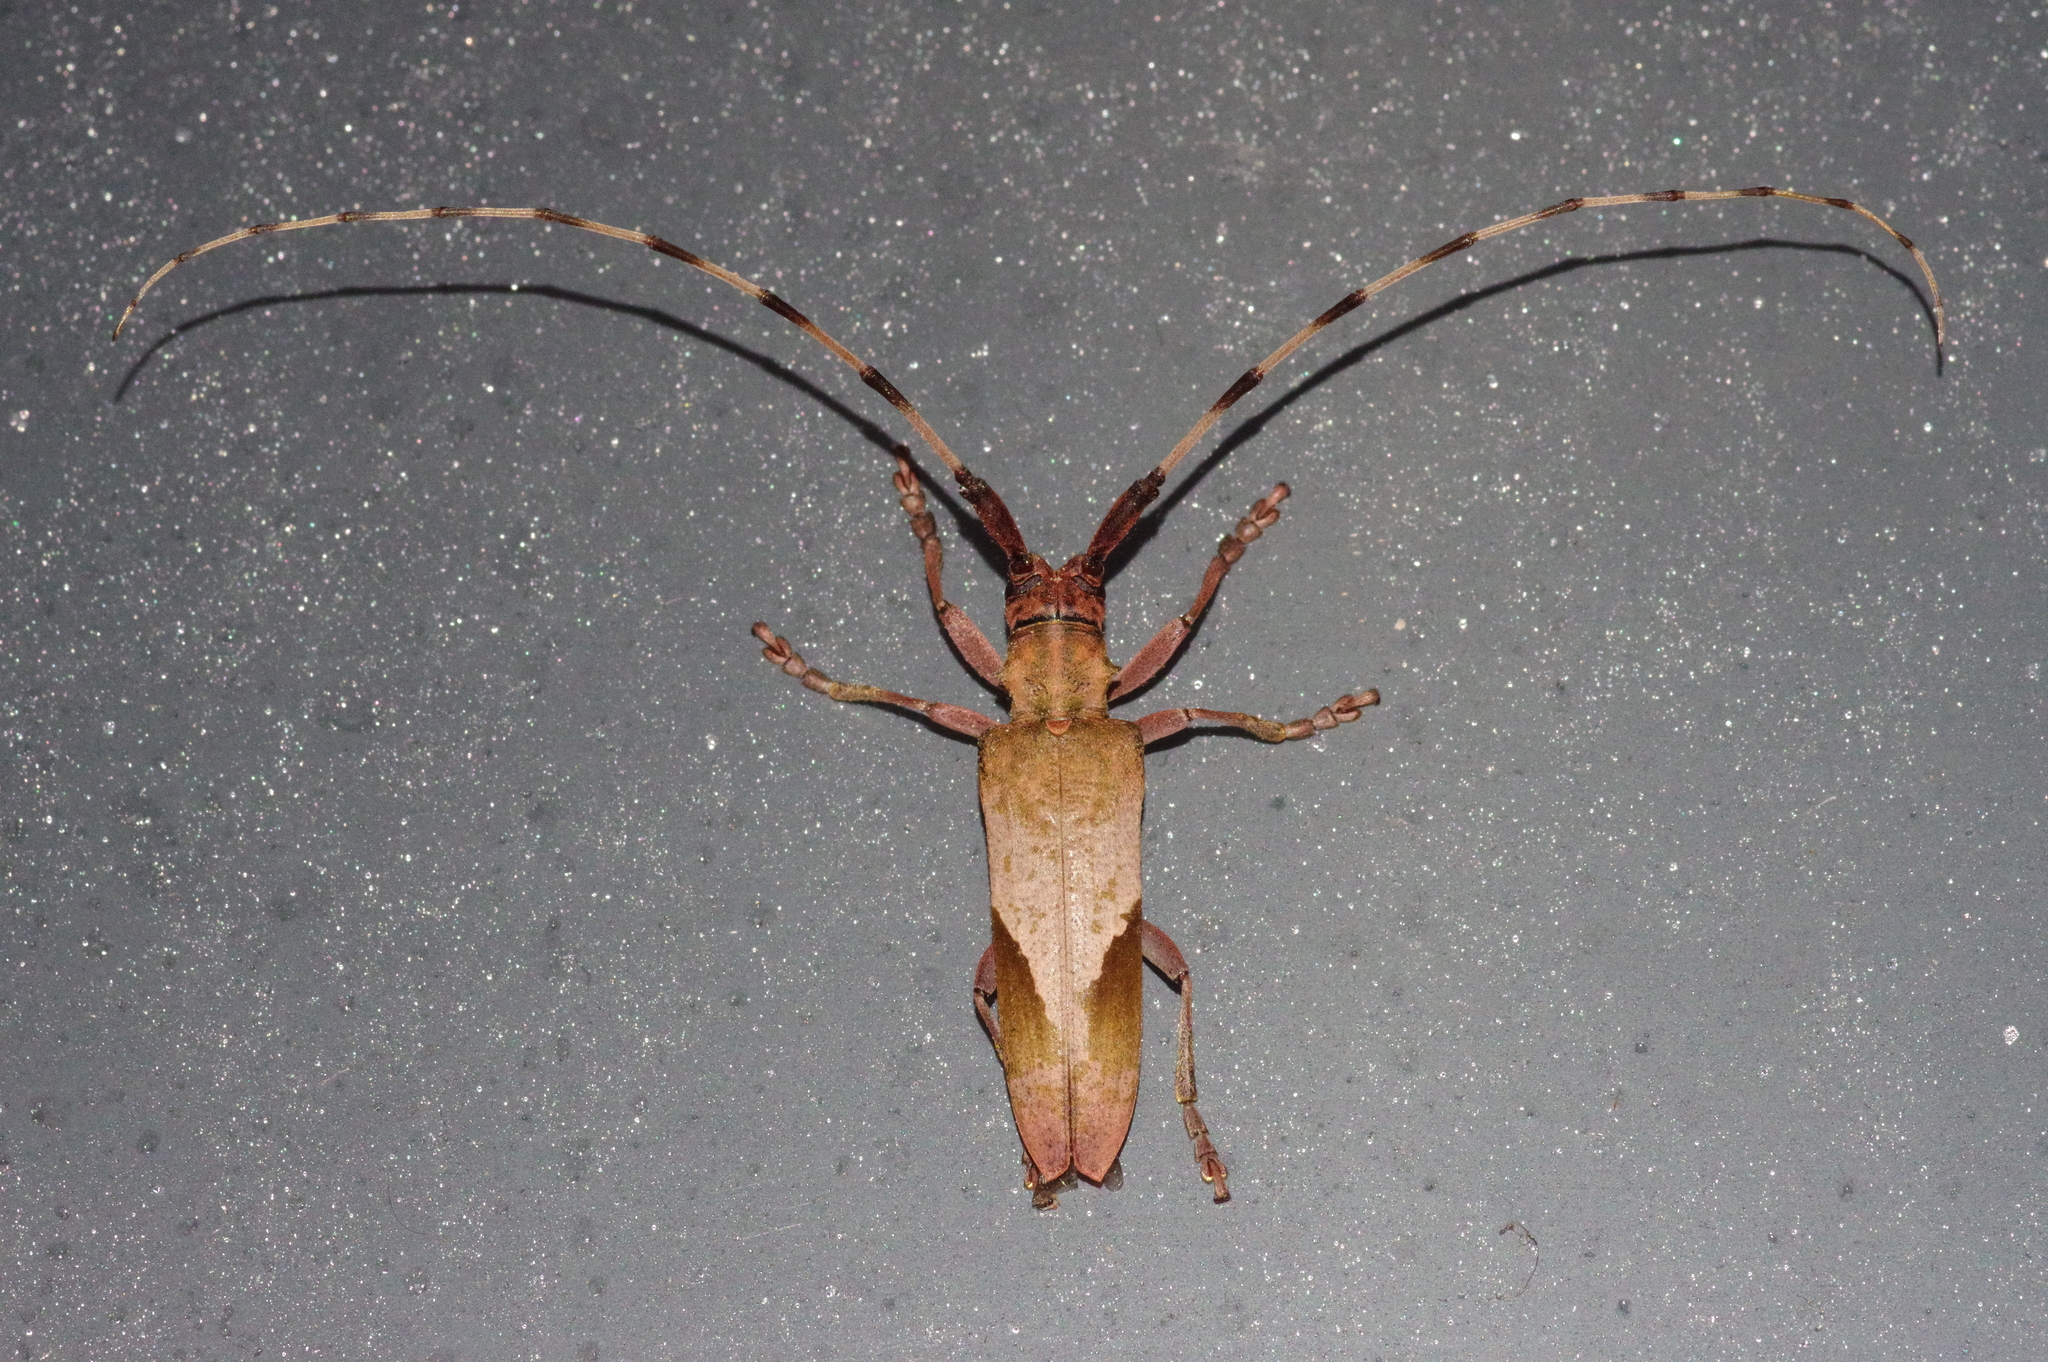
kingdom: Animalia
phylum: Arthropoda
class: Insecta
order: Coleoptera
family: Cerambycidae
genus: Uraecha
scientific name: Uraecha oshimana
